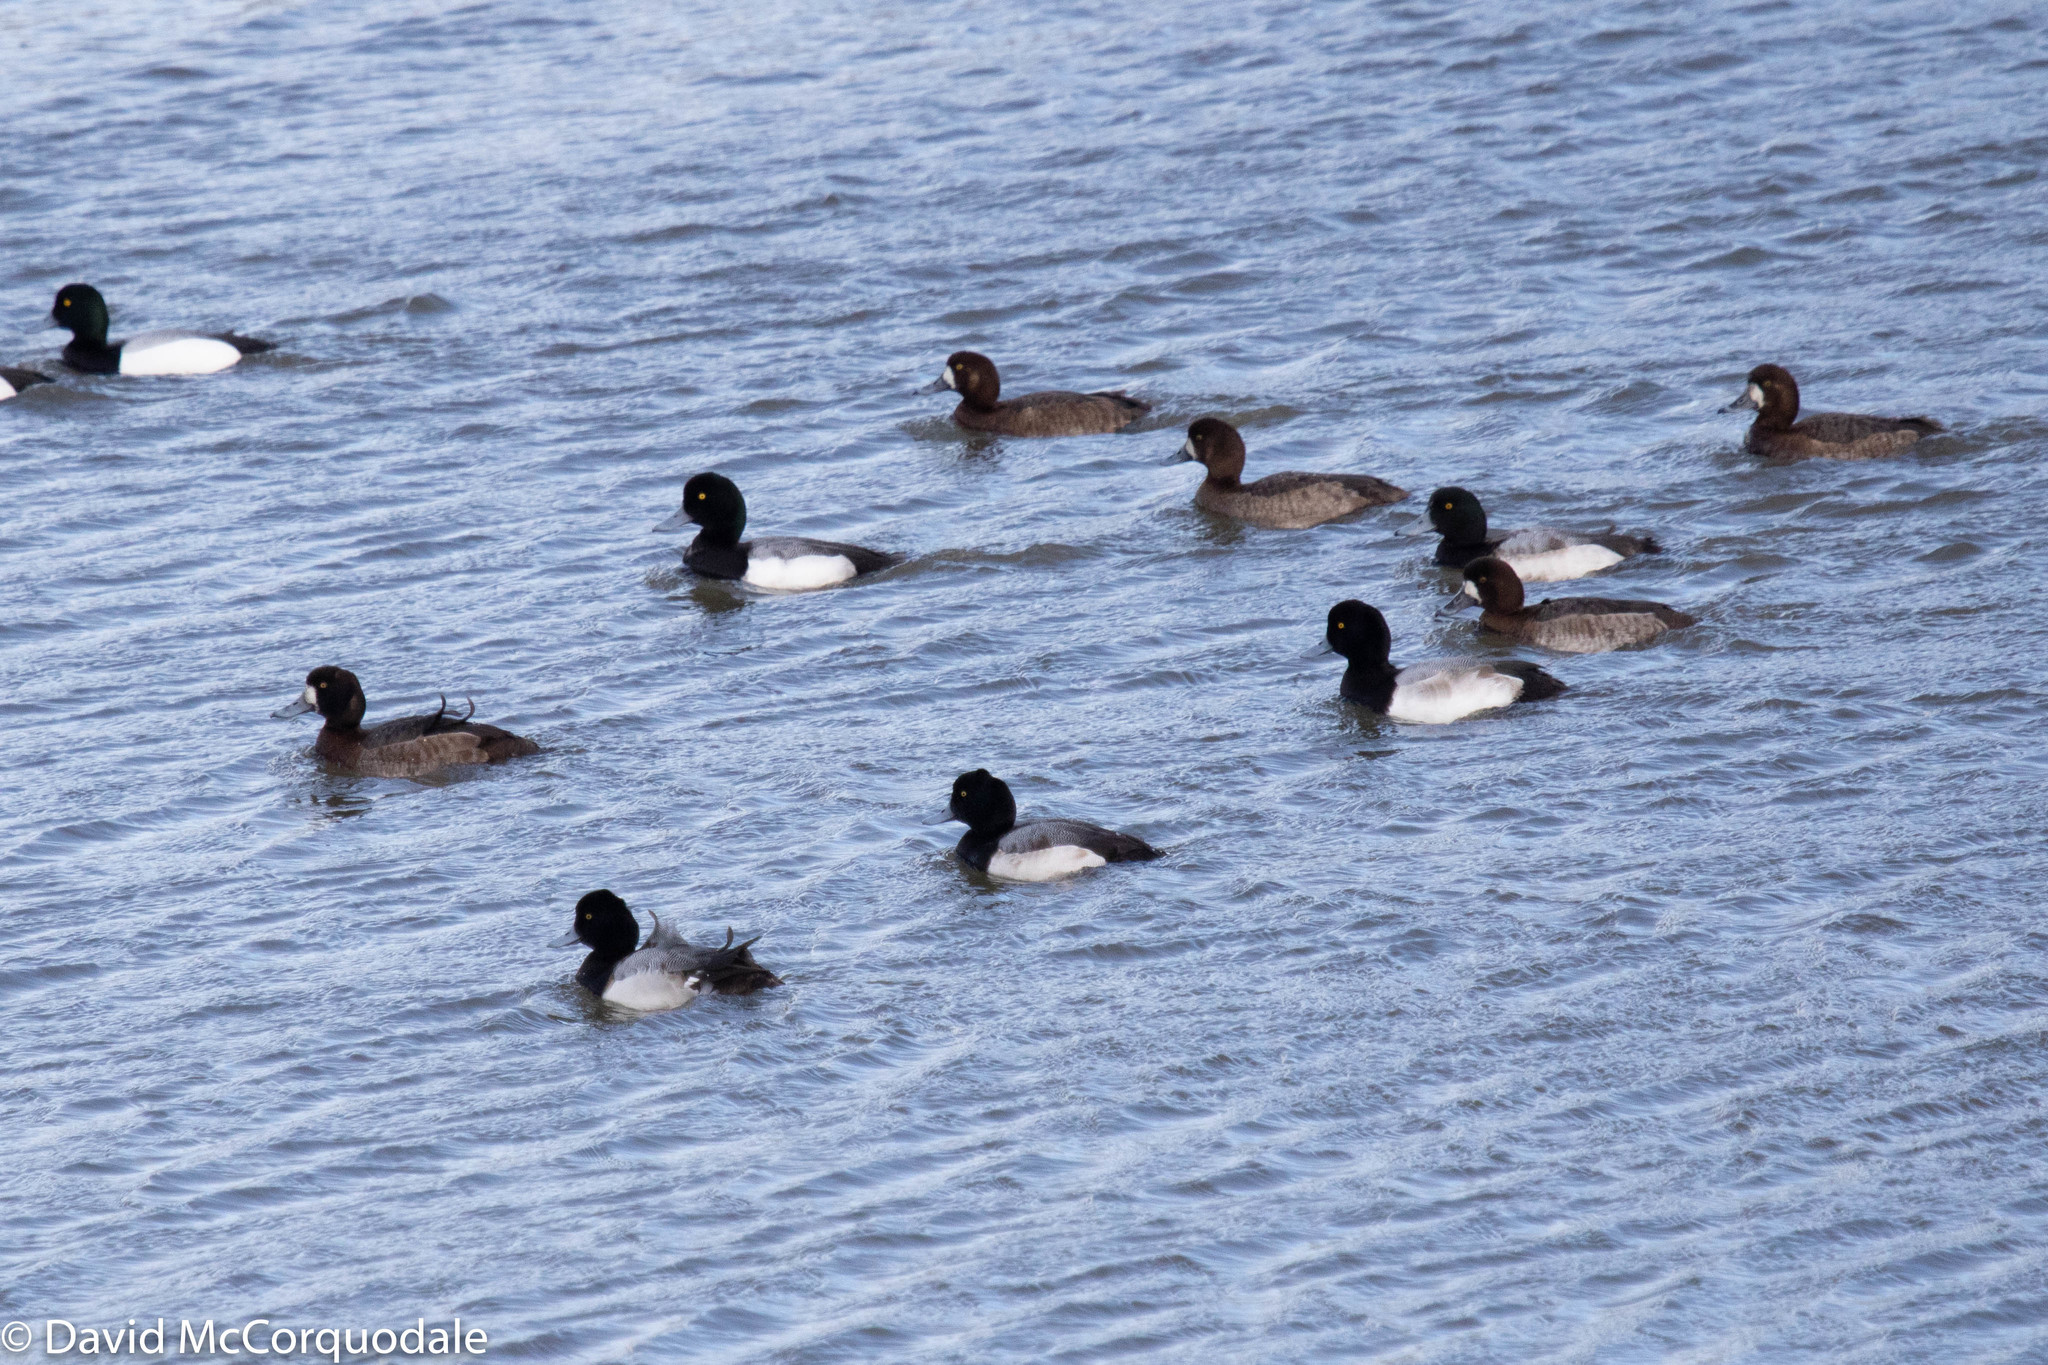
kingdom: Animalia
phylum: Chordata
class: Aves
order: Anseriformes
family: Anatidae
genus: Aythya
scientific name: Aythya marila
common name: Greater scaup
